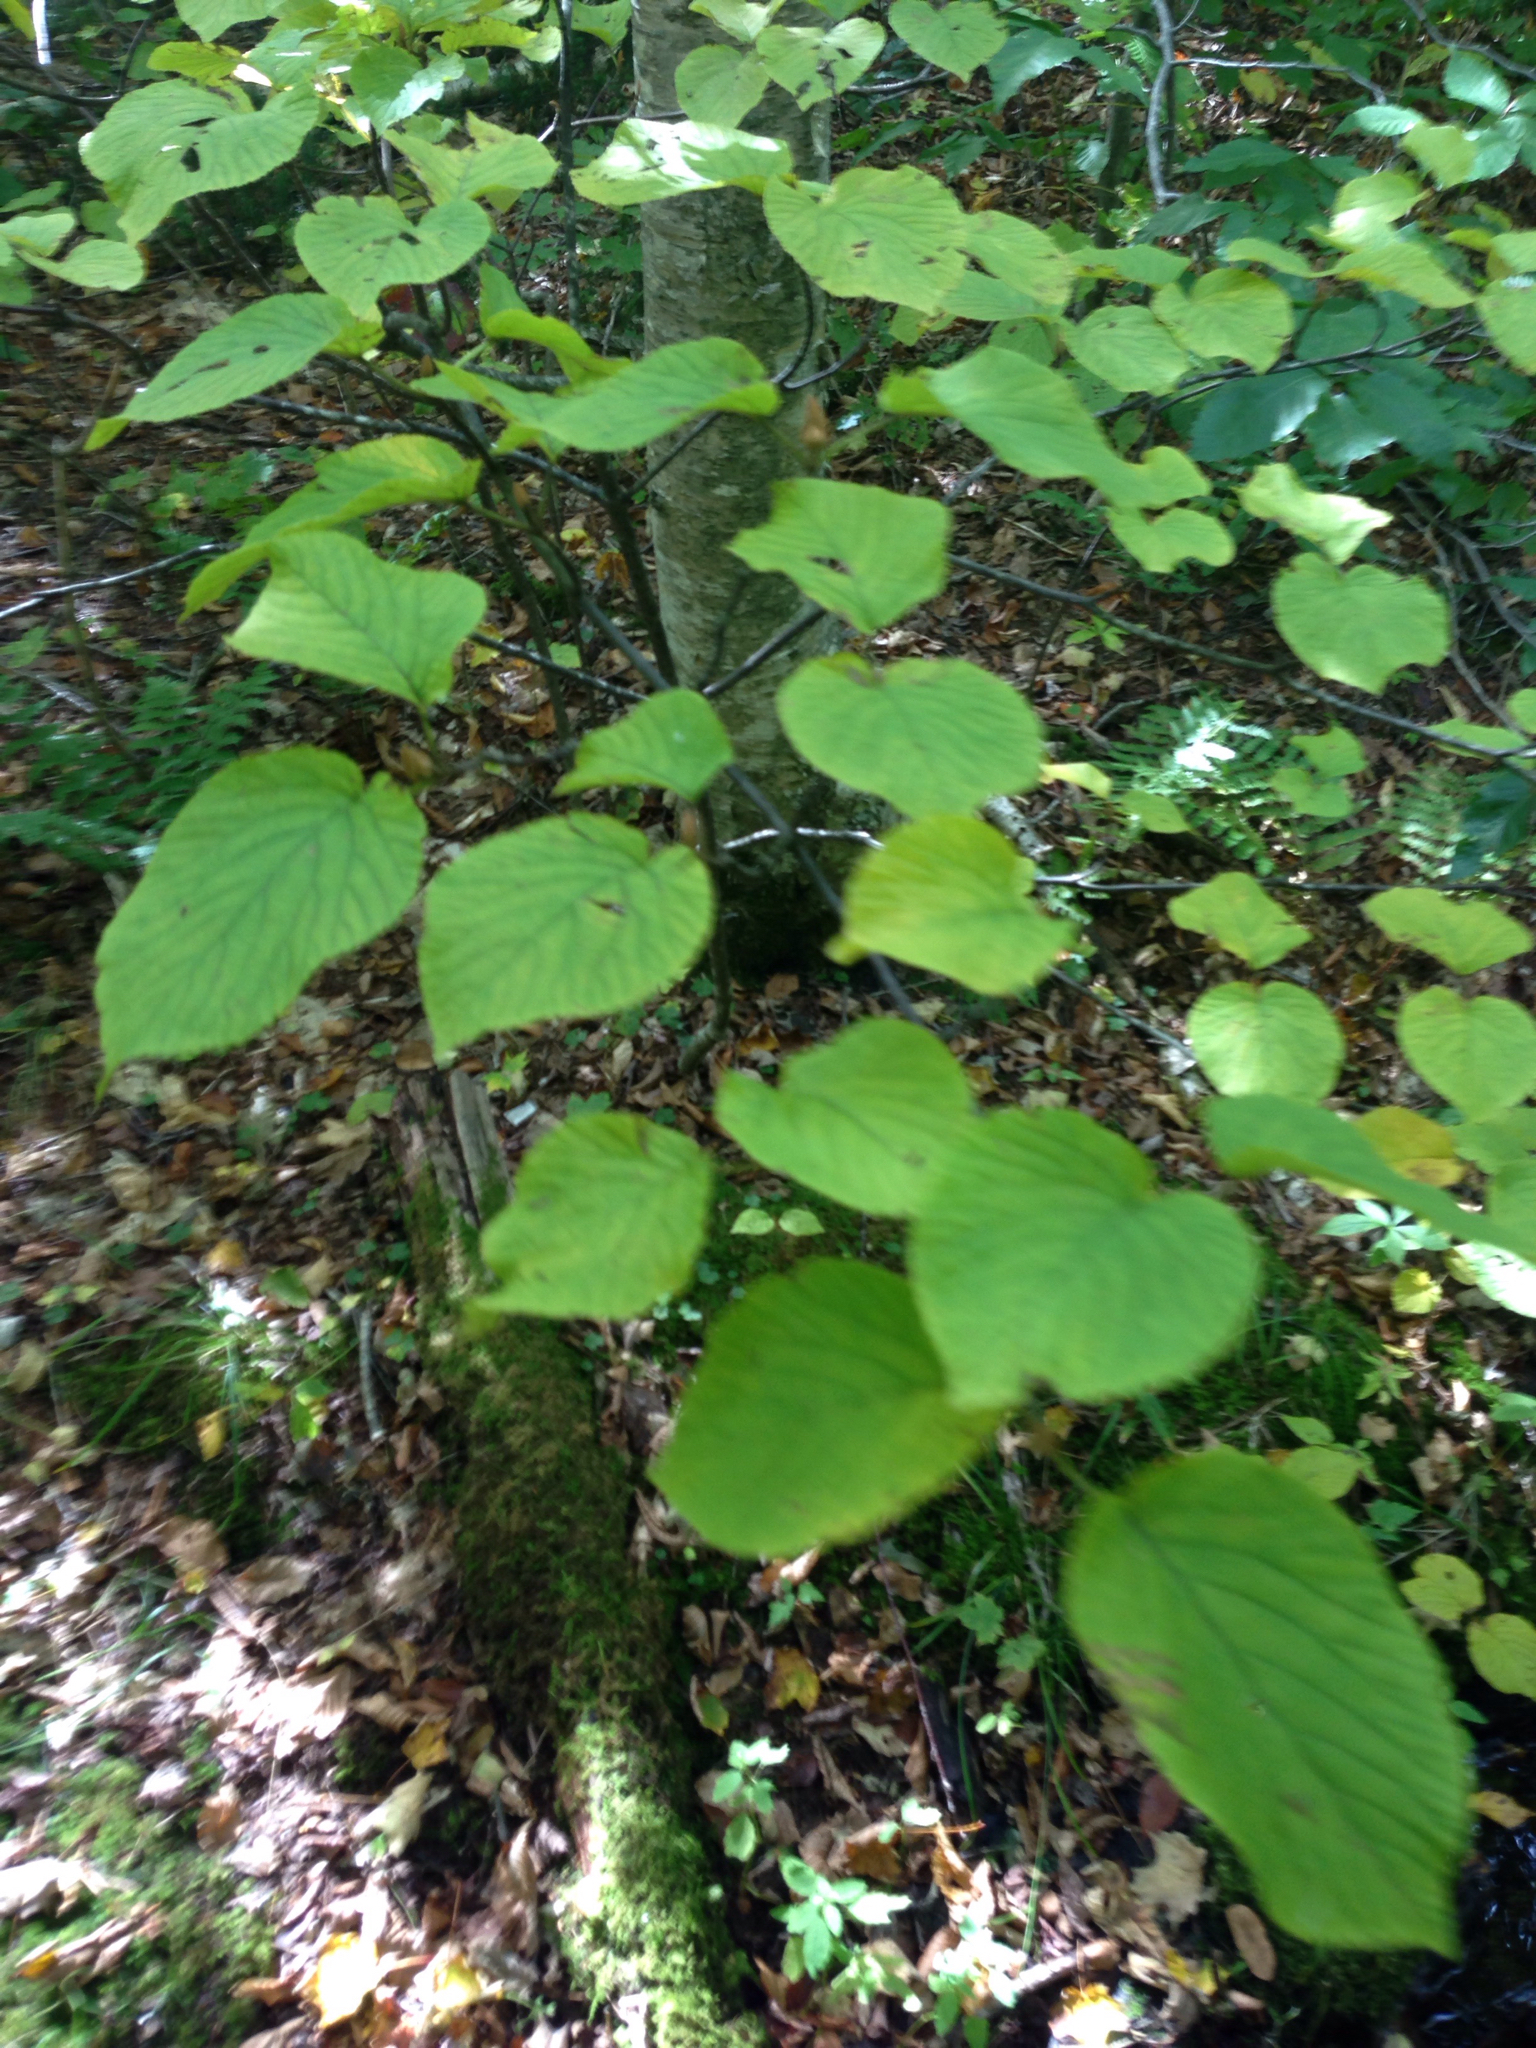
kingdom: Plantae
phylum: Tracheophyta
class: Magnoliopsida
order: Dipsacales
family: Viburnaceae
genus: Viburnum
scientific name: Viburnum lantanoides
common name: Hobblebush
